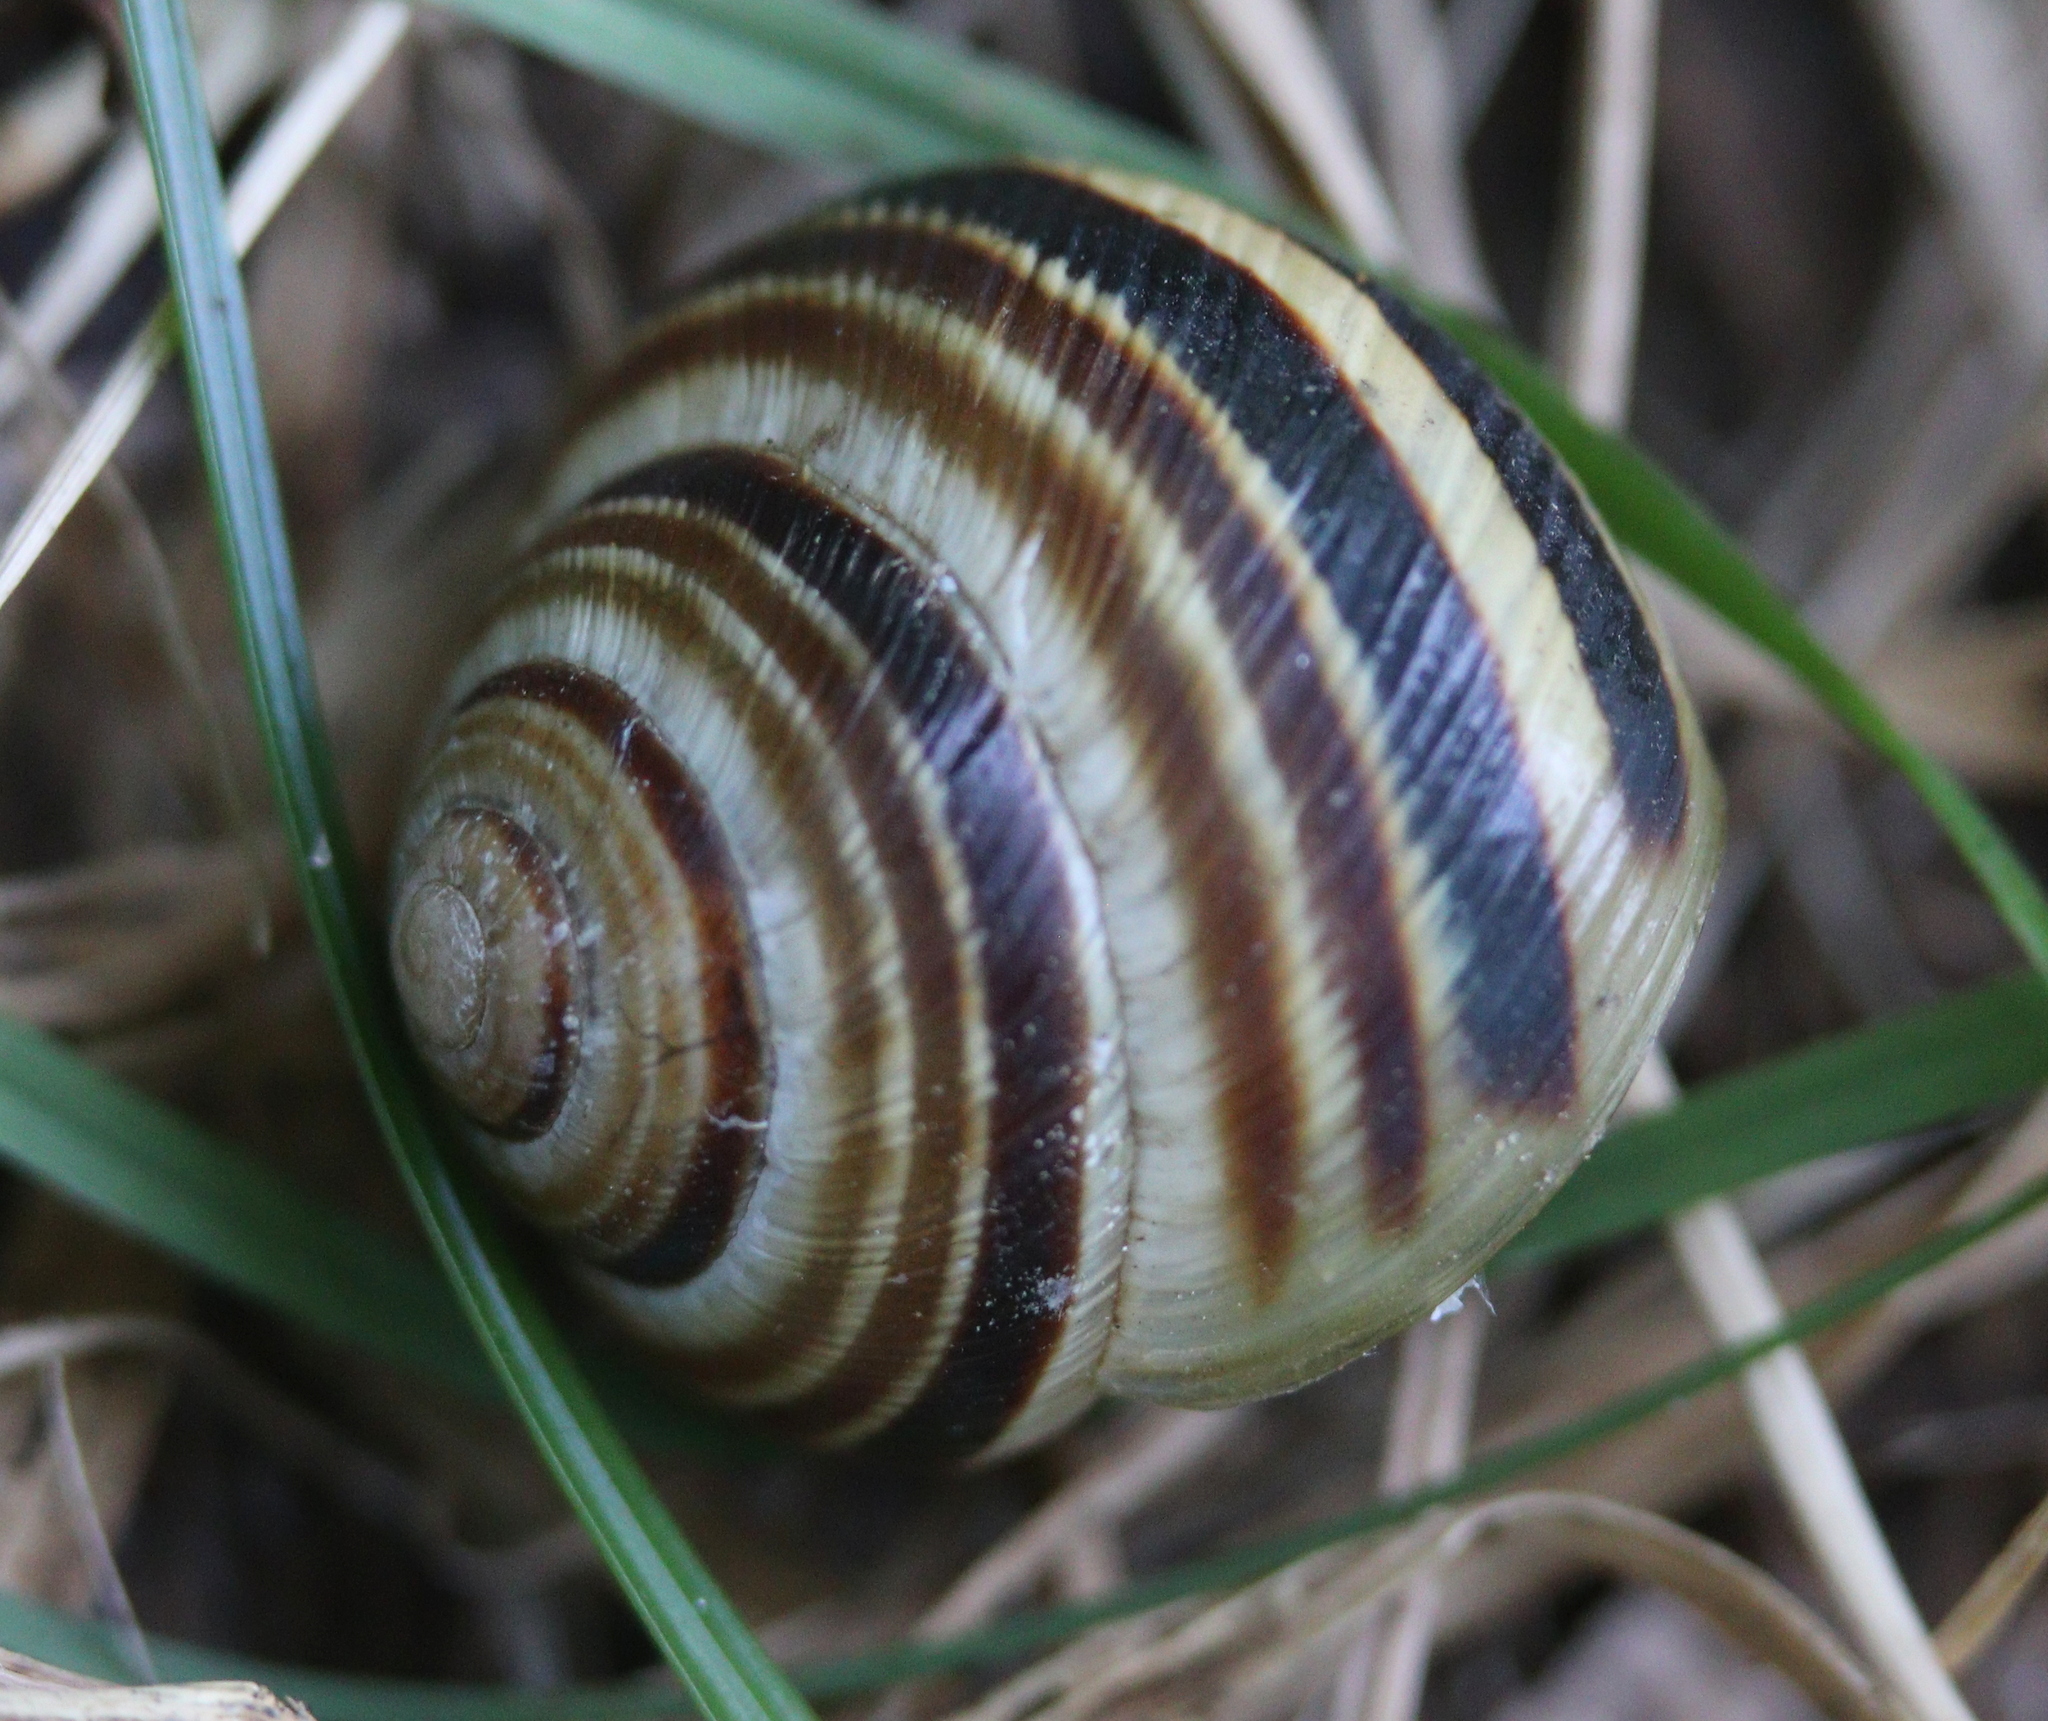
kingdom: Animalia
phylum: Mollusca
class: Gastropoda
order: Stylommatophora
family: Helicidae
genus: Caucasotachea
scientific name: Caucasotachea vindobonensis
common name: European helicid land snail
